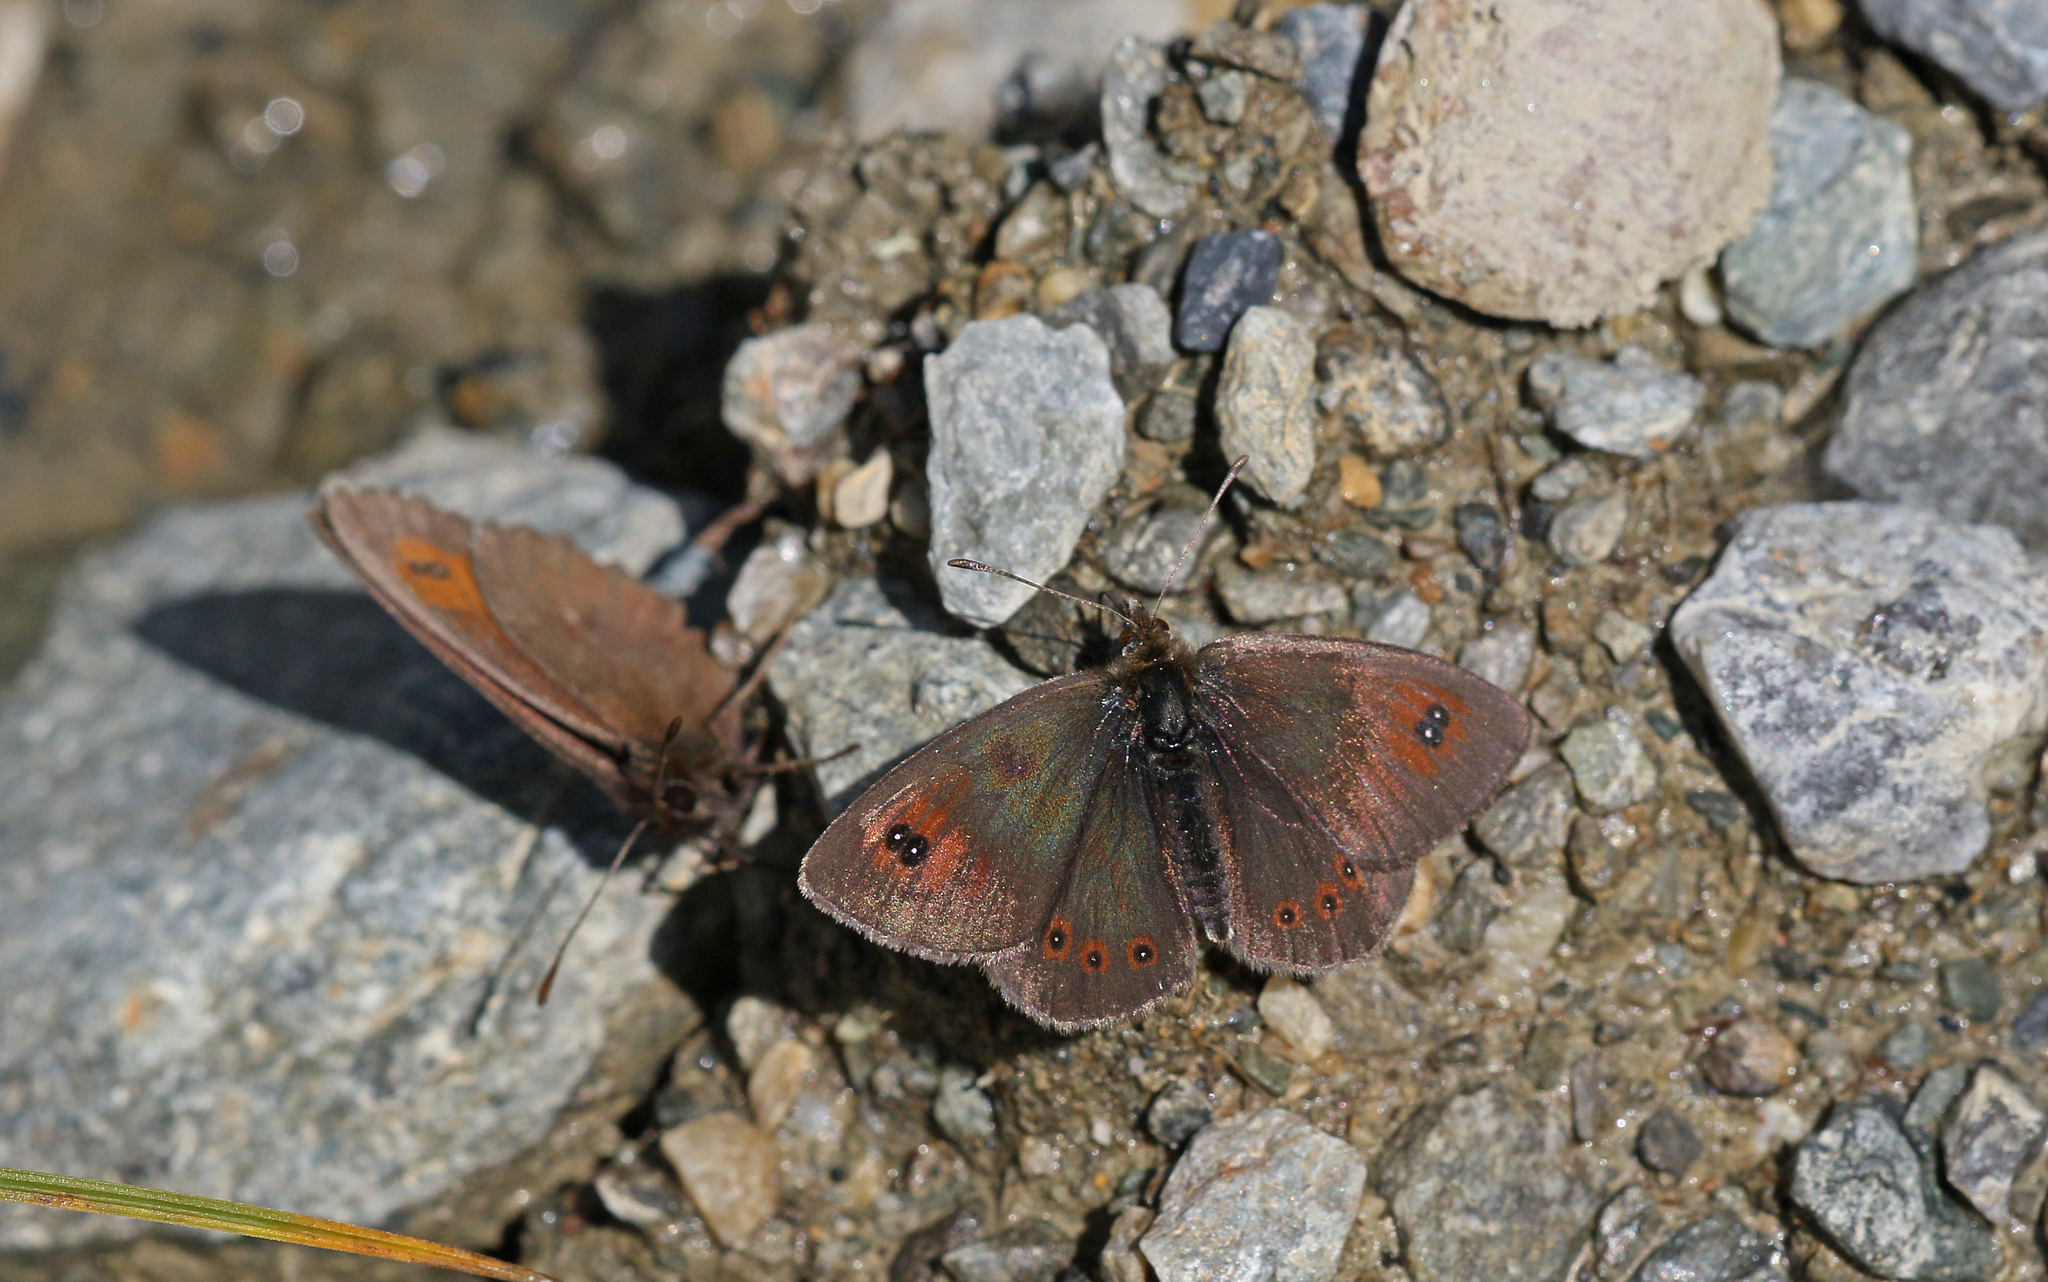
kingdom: Animalia
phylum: Arthropoda
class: Insecta
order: Lepidoptera
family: Nymphalidae
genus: Erebia
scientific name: Erebia cassioides
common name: Common brassy ringlet
